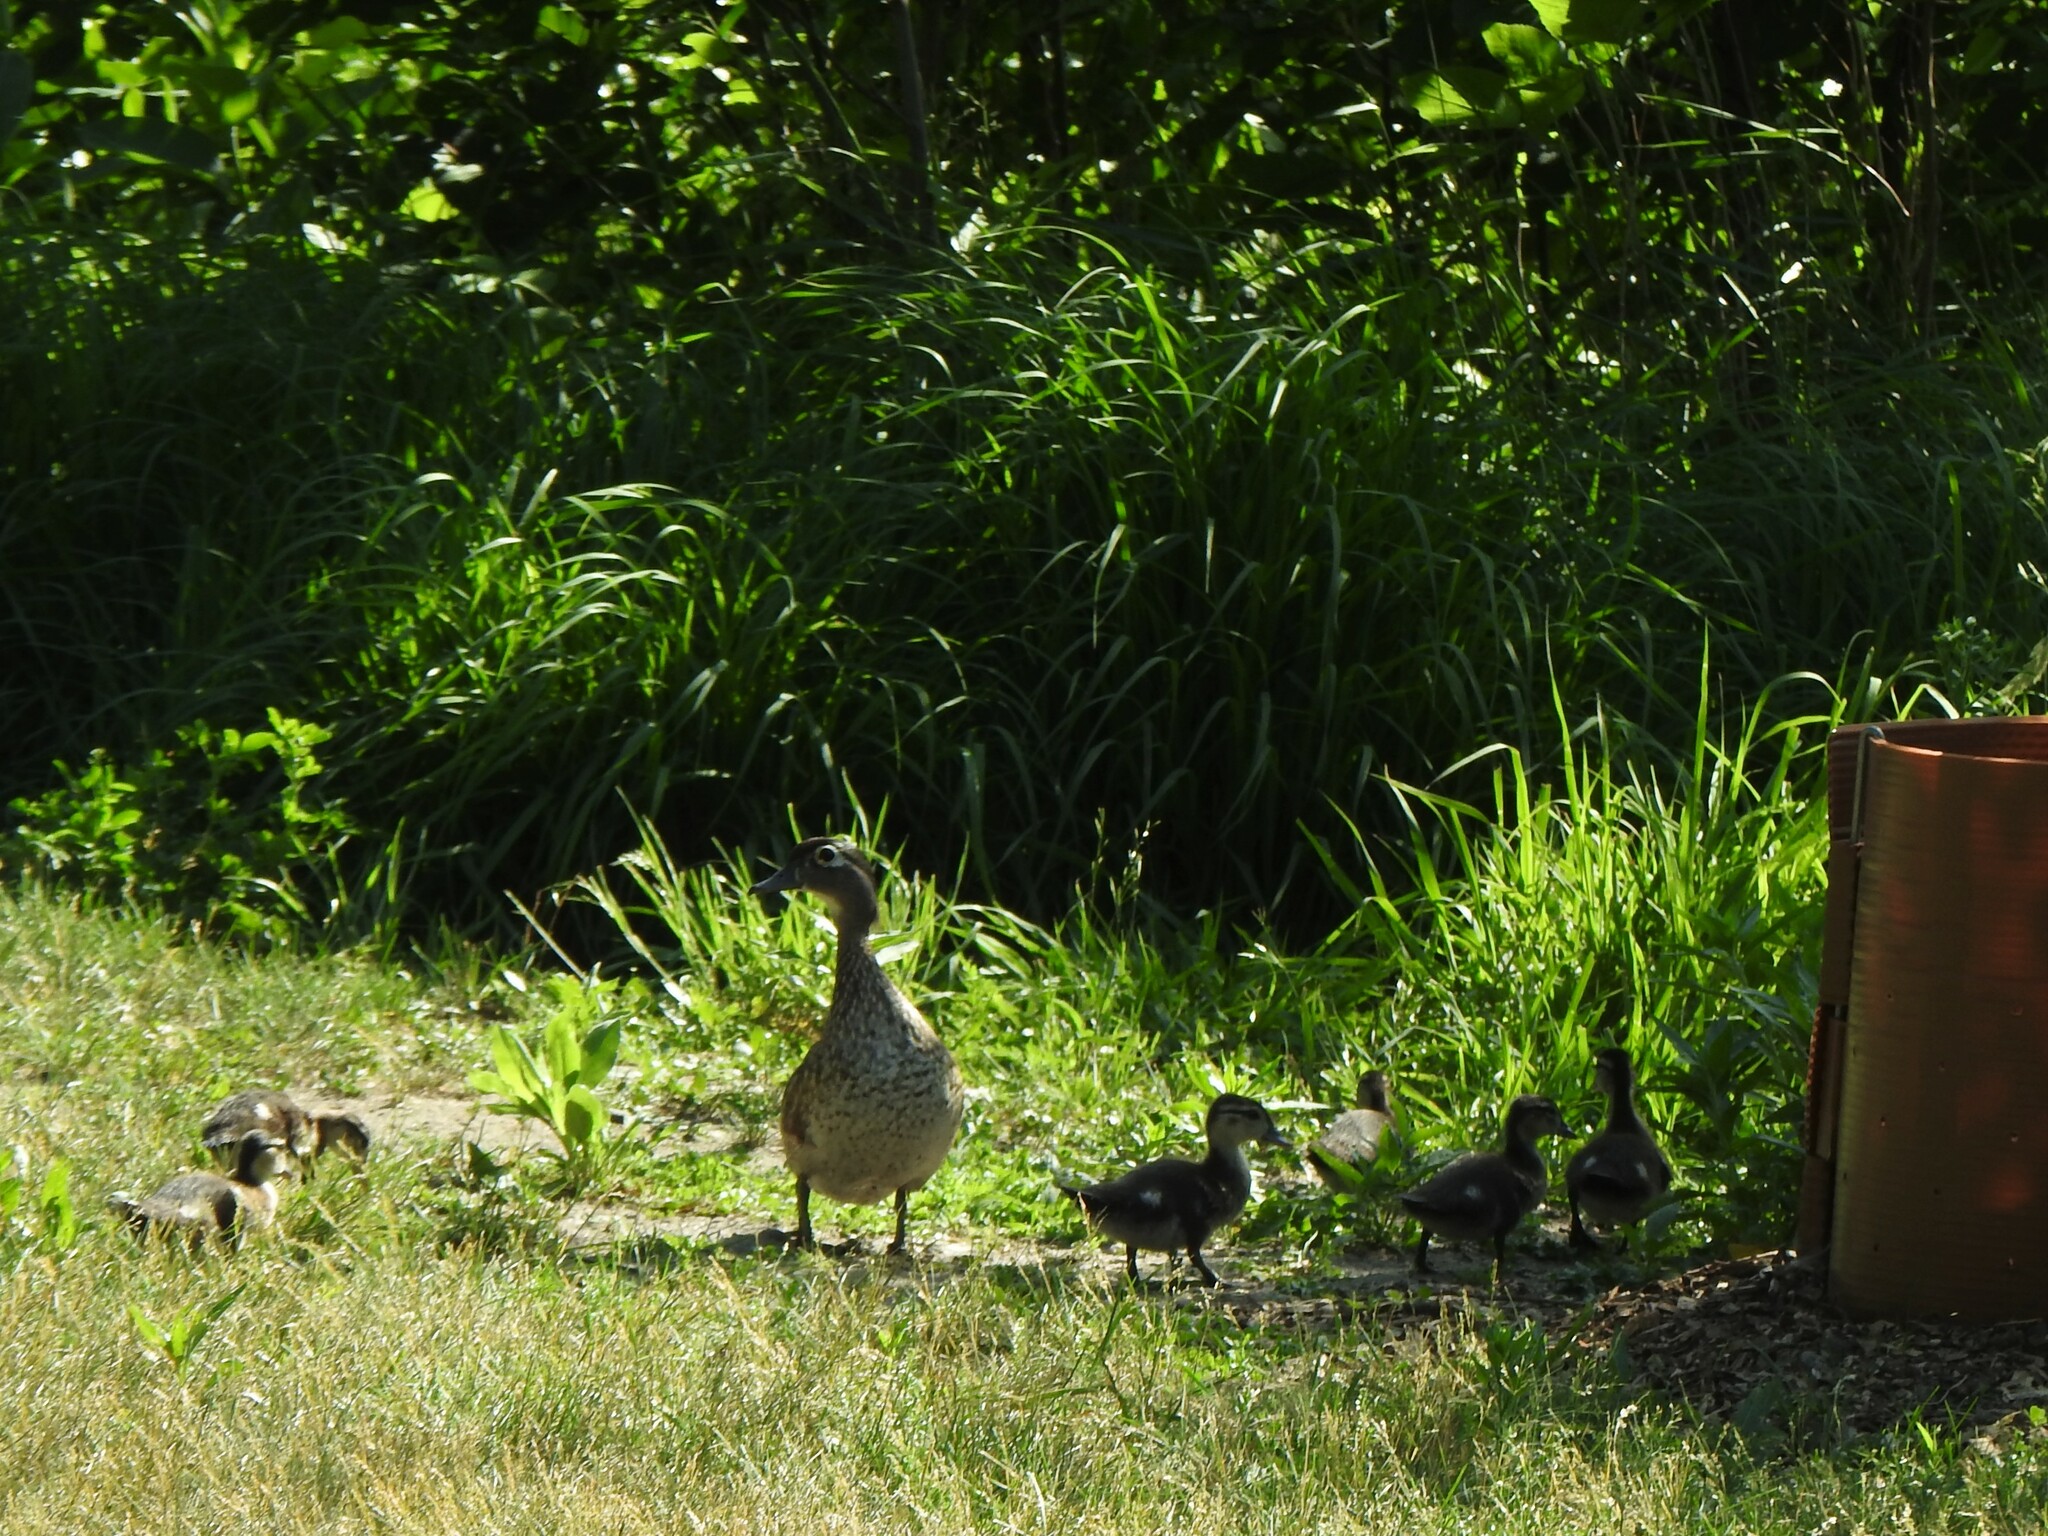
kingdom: Animalia
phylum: Chordata
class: Aves
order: Anseriformes
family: Anatidae
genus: Aix
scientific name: Aix sponsa
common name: Wood duck
